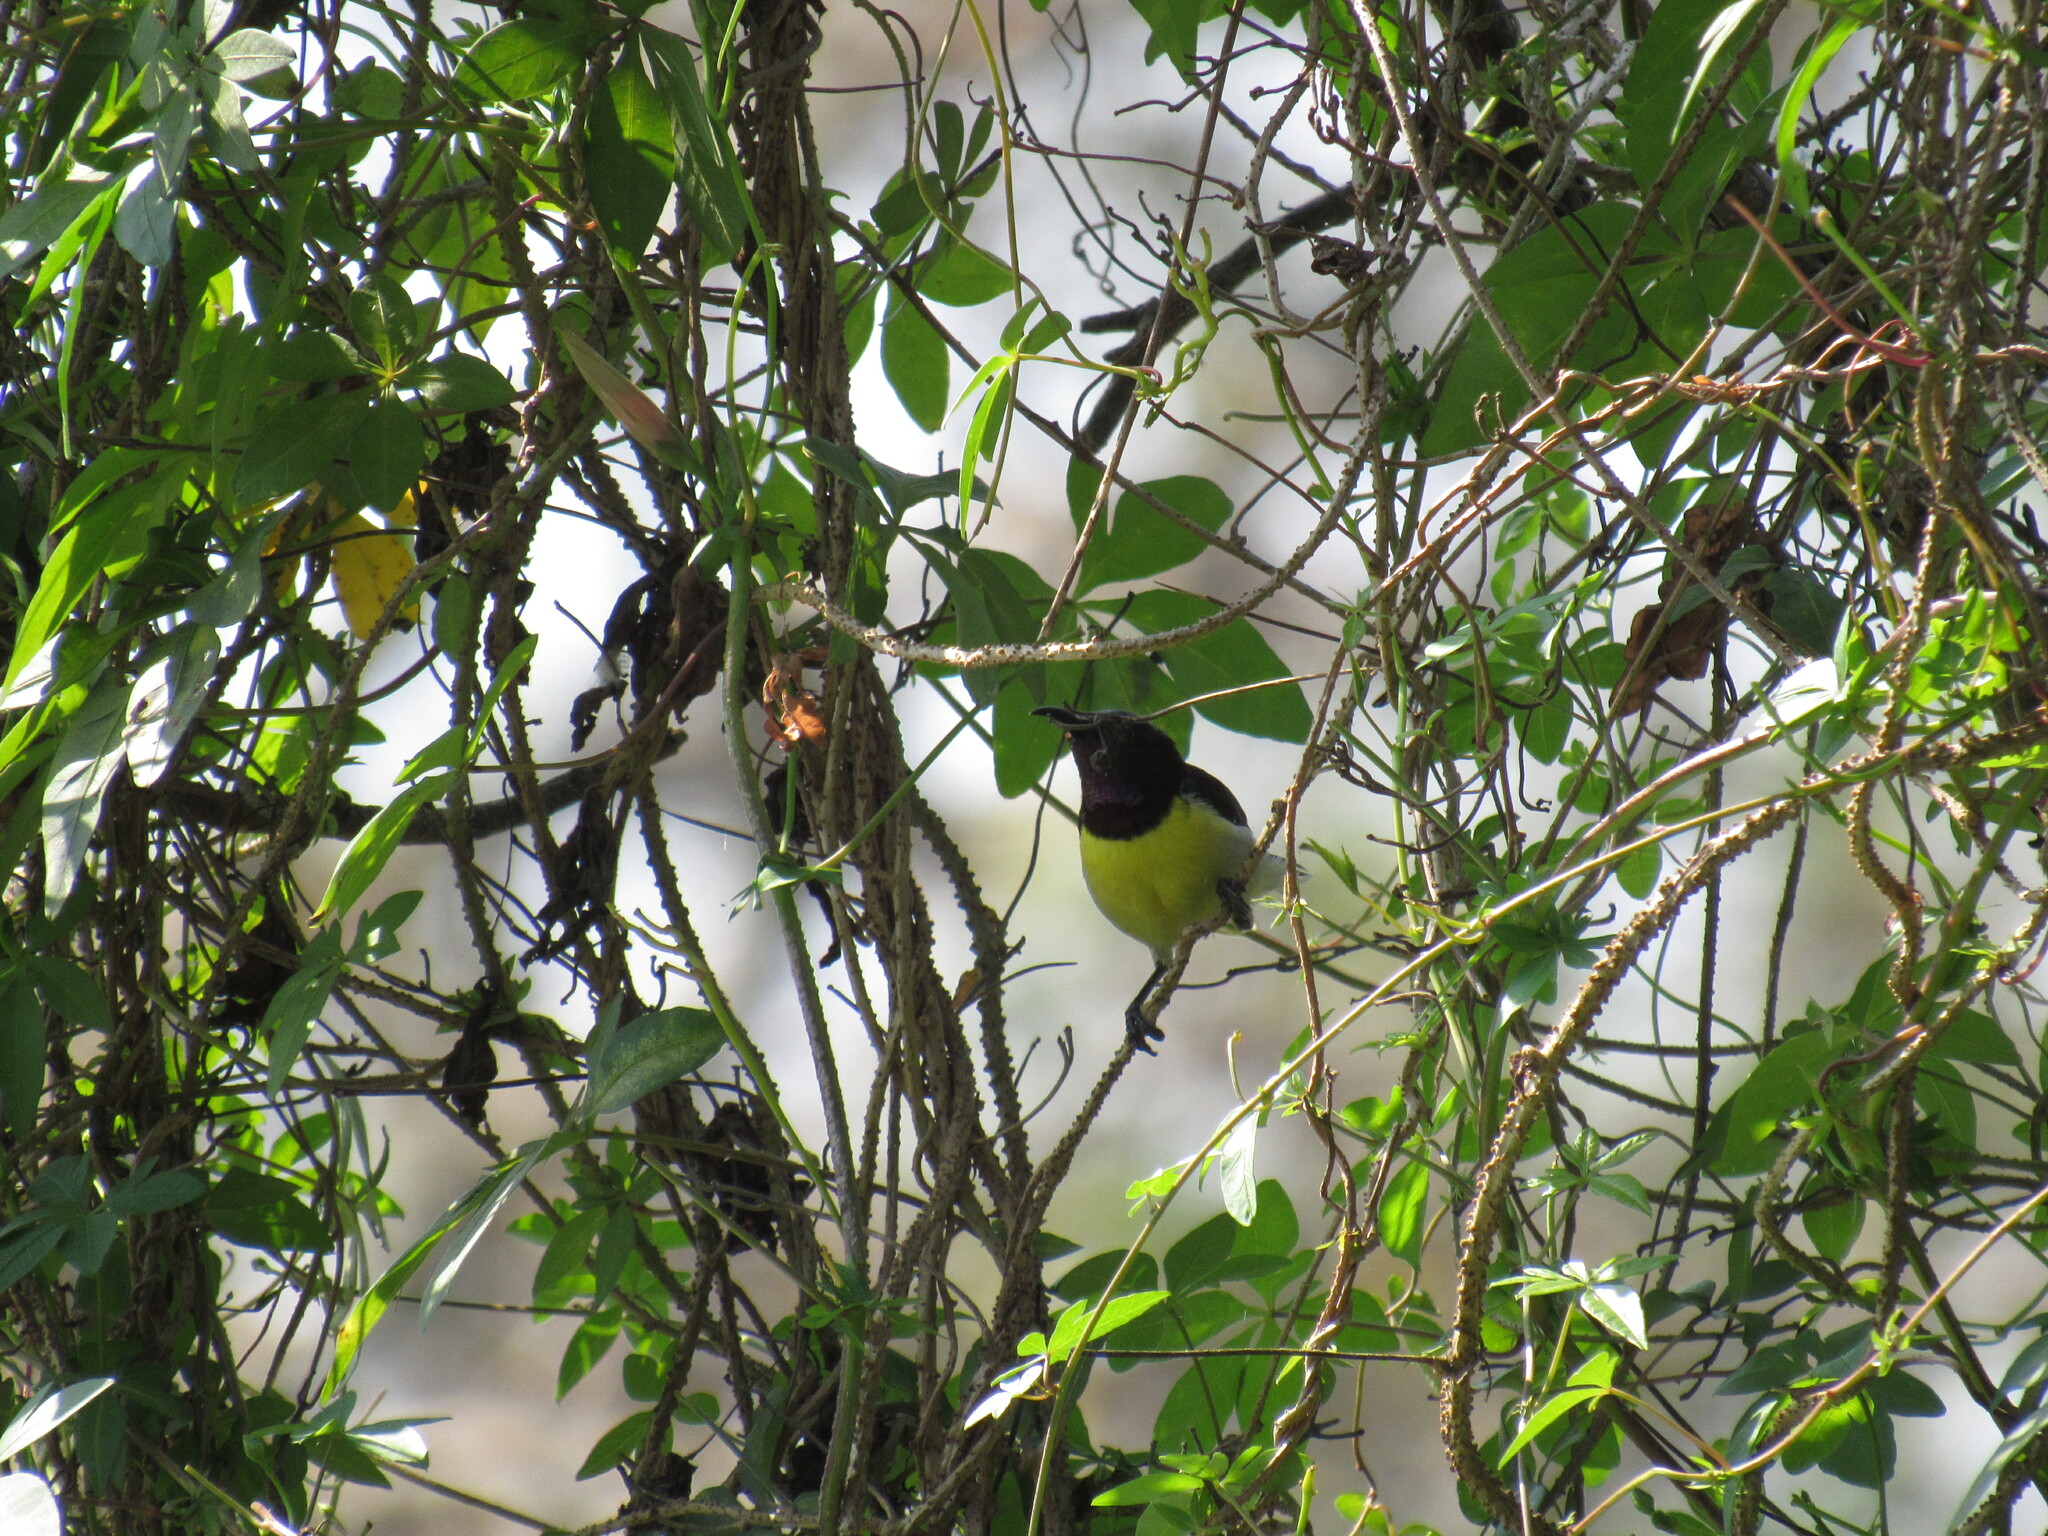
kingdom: Animalia
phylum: Chordata
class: Aves
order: Passeriformes
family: Nectariniidae
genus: Leptocoma
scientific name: Leptocoma zeylonica
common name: Purple-rumped sunbird
